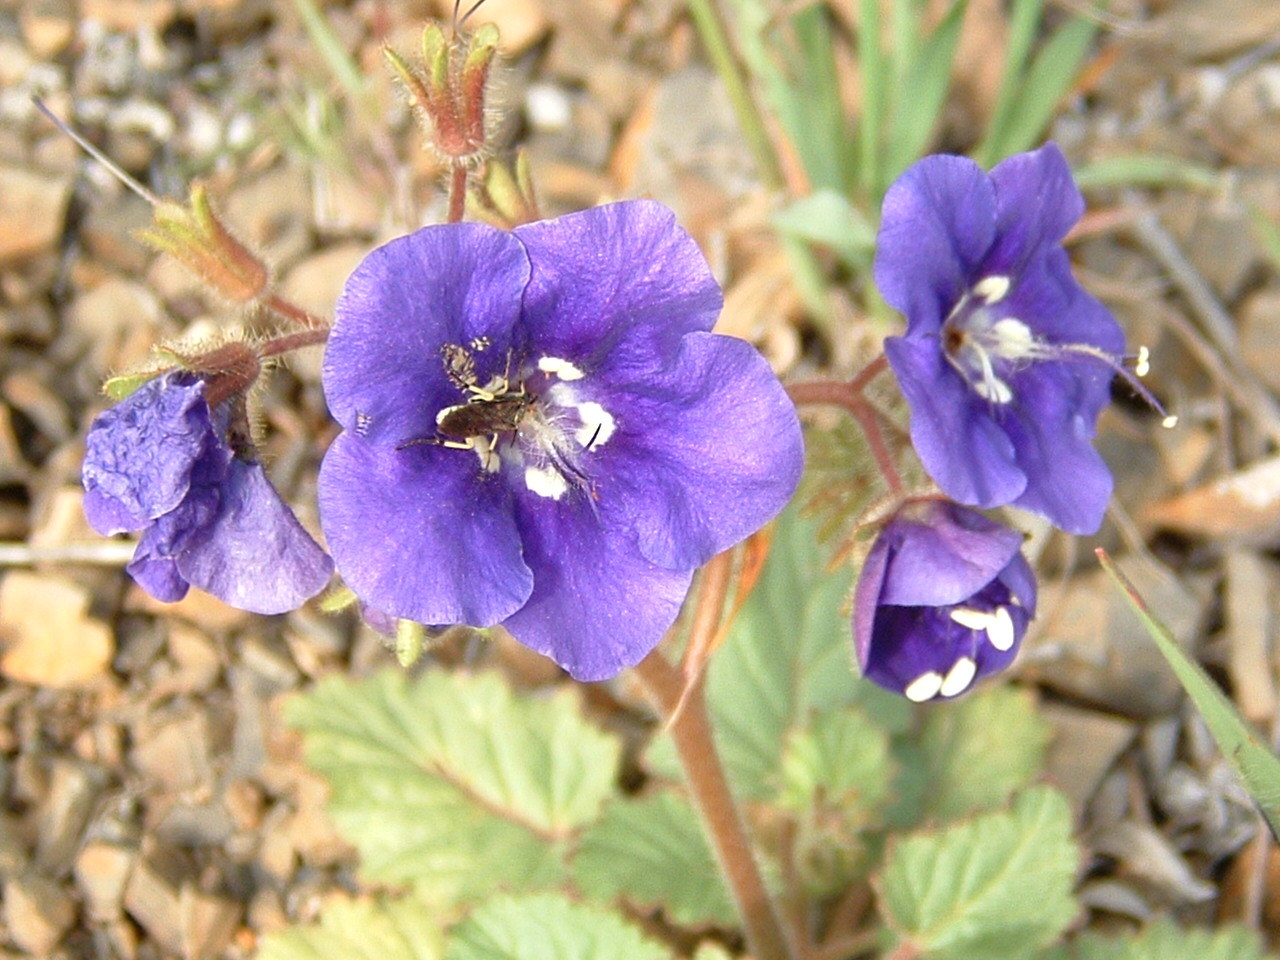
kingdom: Plantae
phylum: Tracheophyta
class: Magnoliopsida
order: Boraginales
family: Hydrophyllaceae
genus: Phacelia
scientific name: Phacelia parryi
